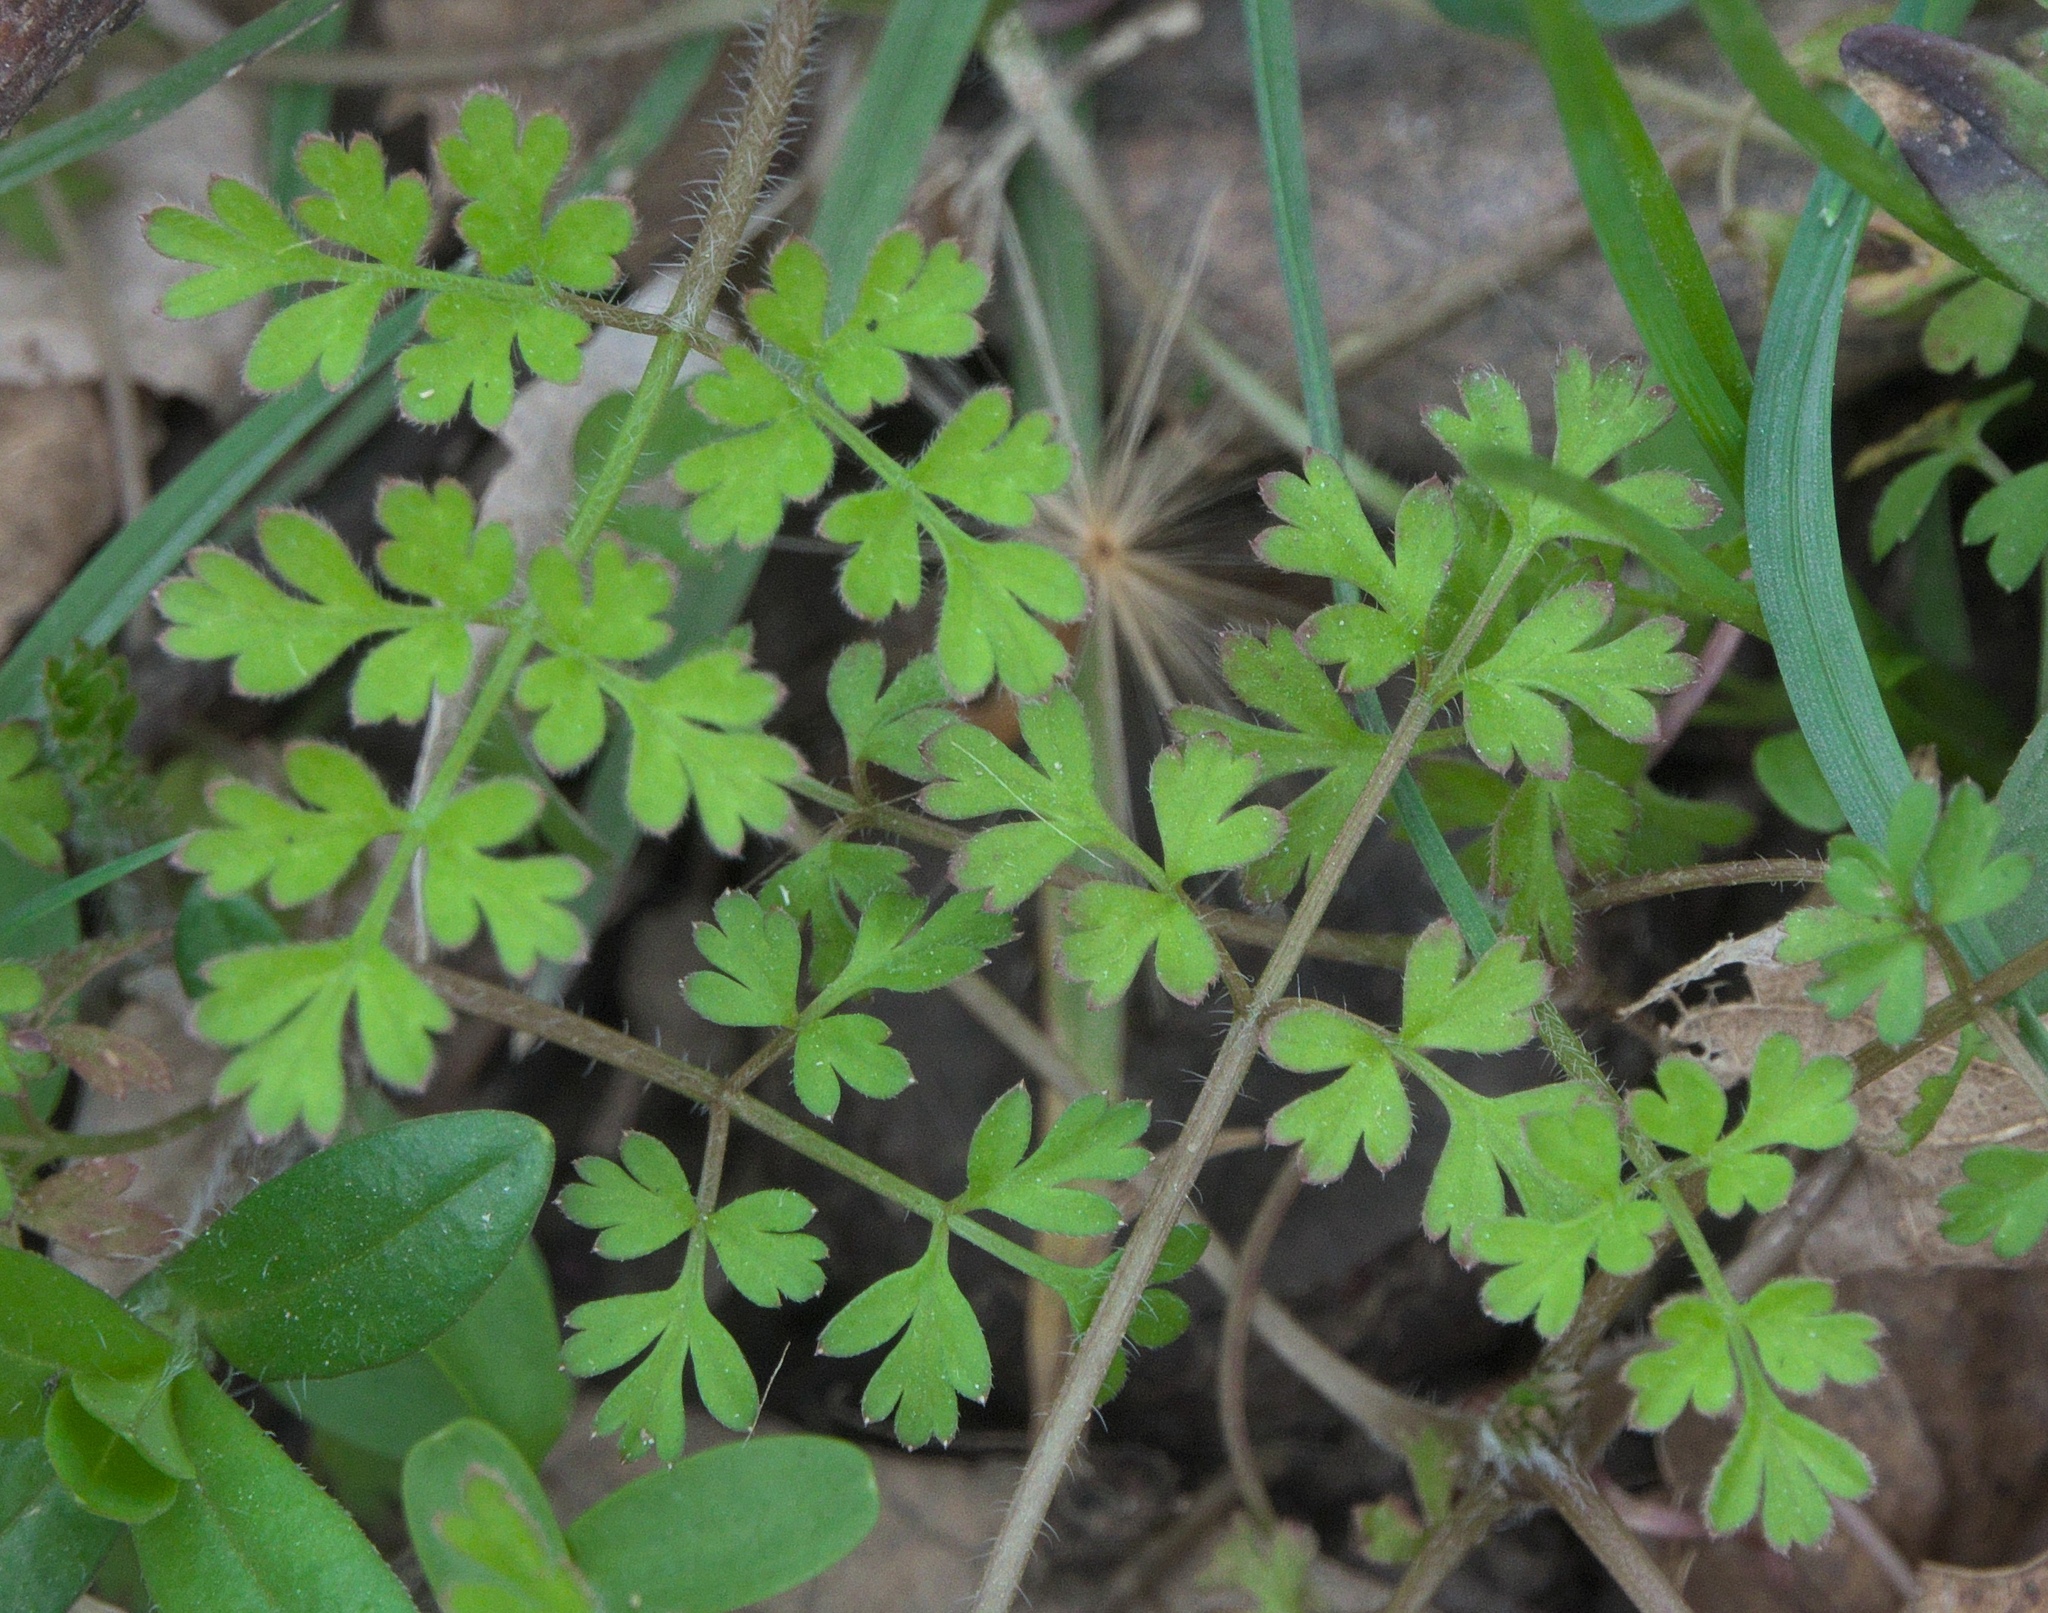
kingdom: Plantae
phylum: Tracheophyta
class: Magnoliopsida
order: Apiales
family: Apiaceae
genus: Chaerophyllum
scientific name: Chaerophyllum tainturieri
